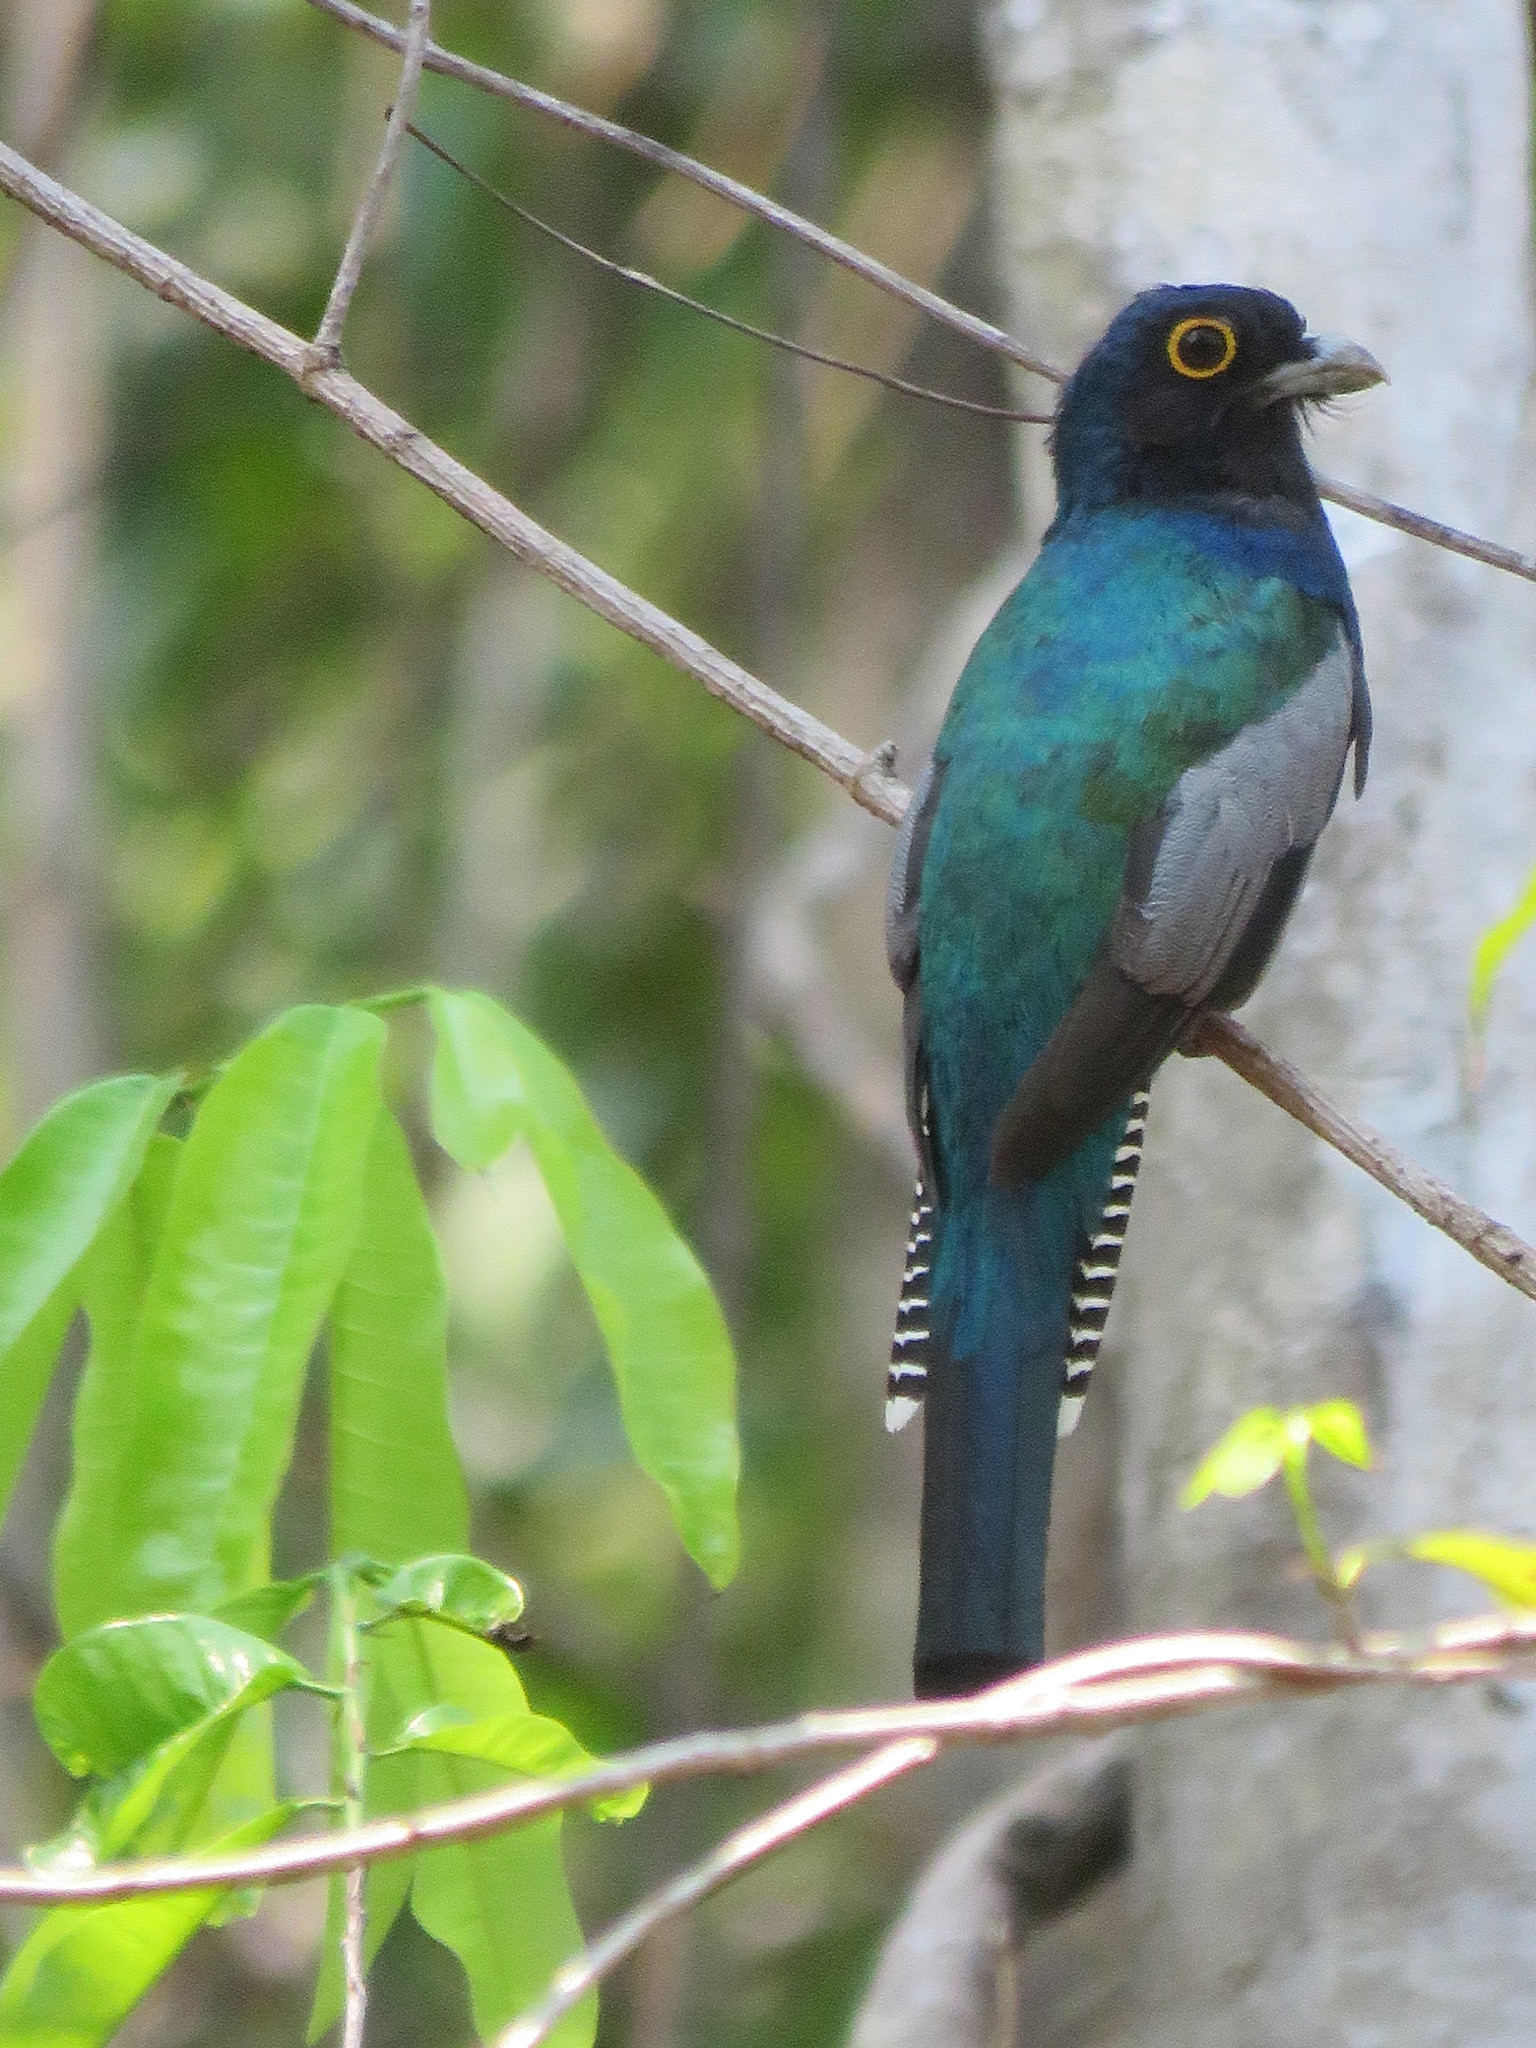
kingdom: Animalia
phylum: Chordata
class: Aves
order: Trogoniformes
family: Trogonidae
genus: Trogon
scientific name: Trogon ramonianus
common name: Amazonian trogon
